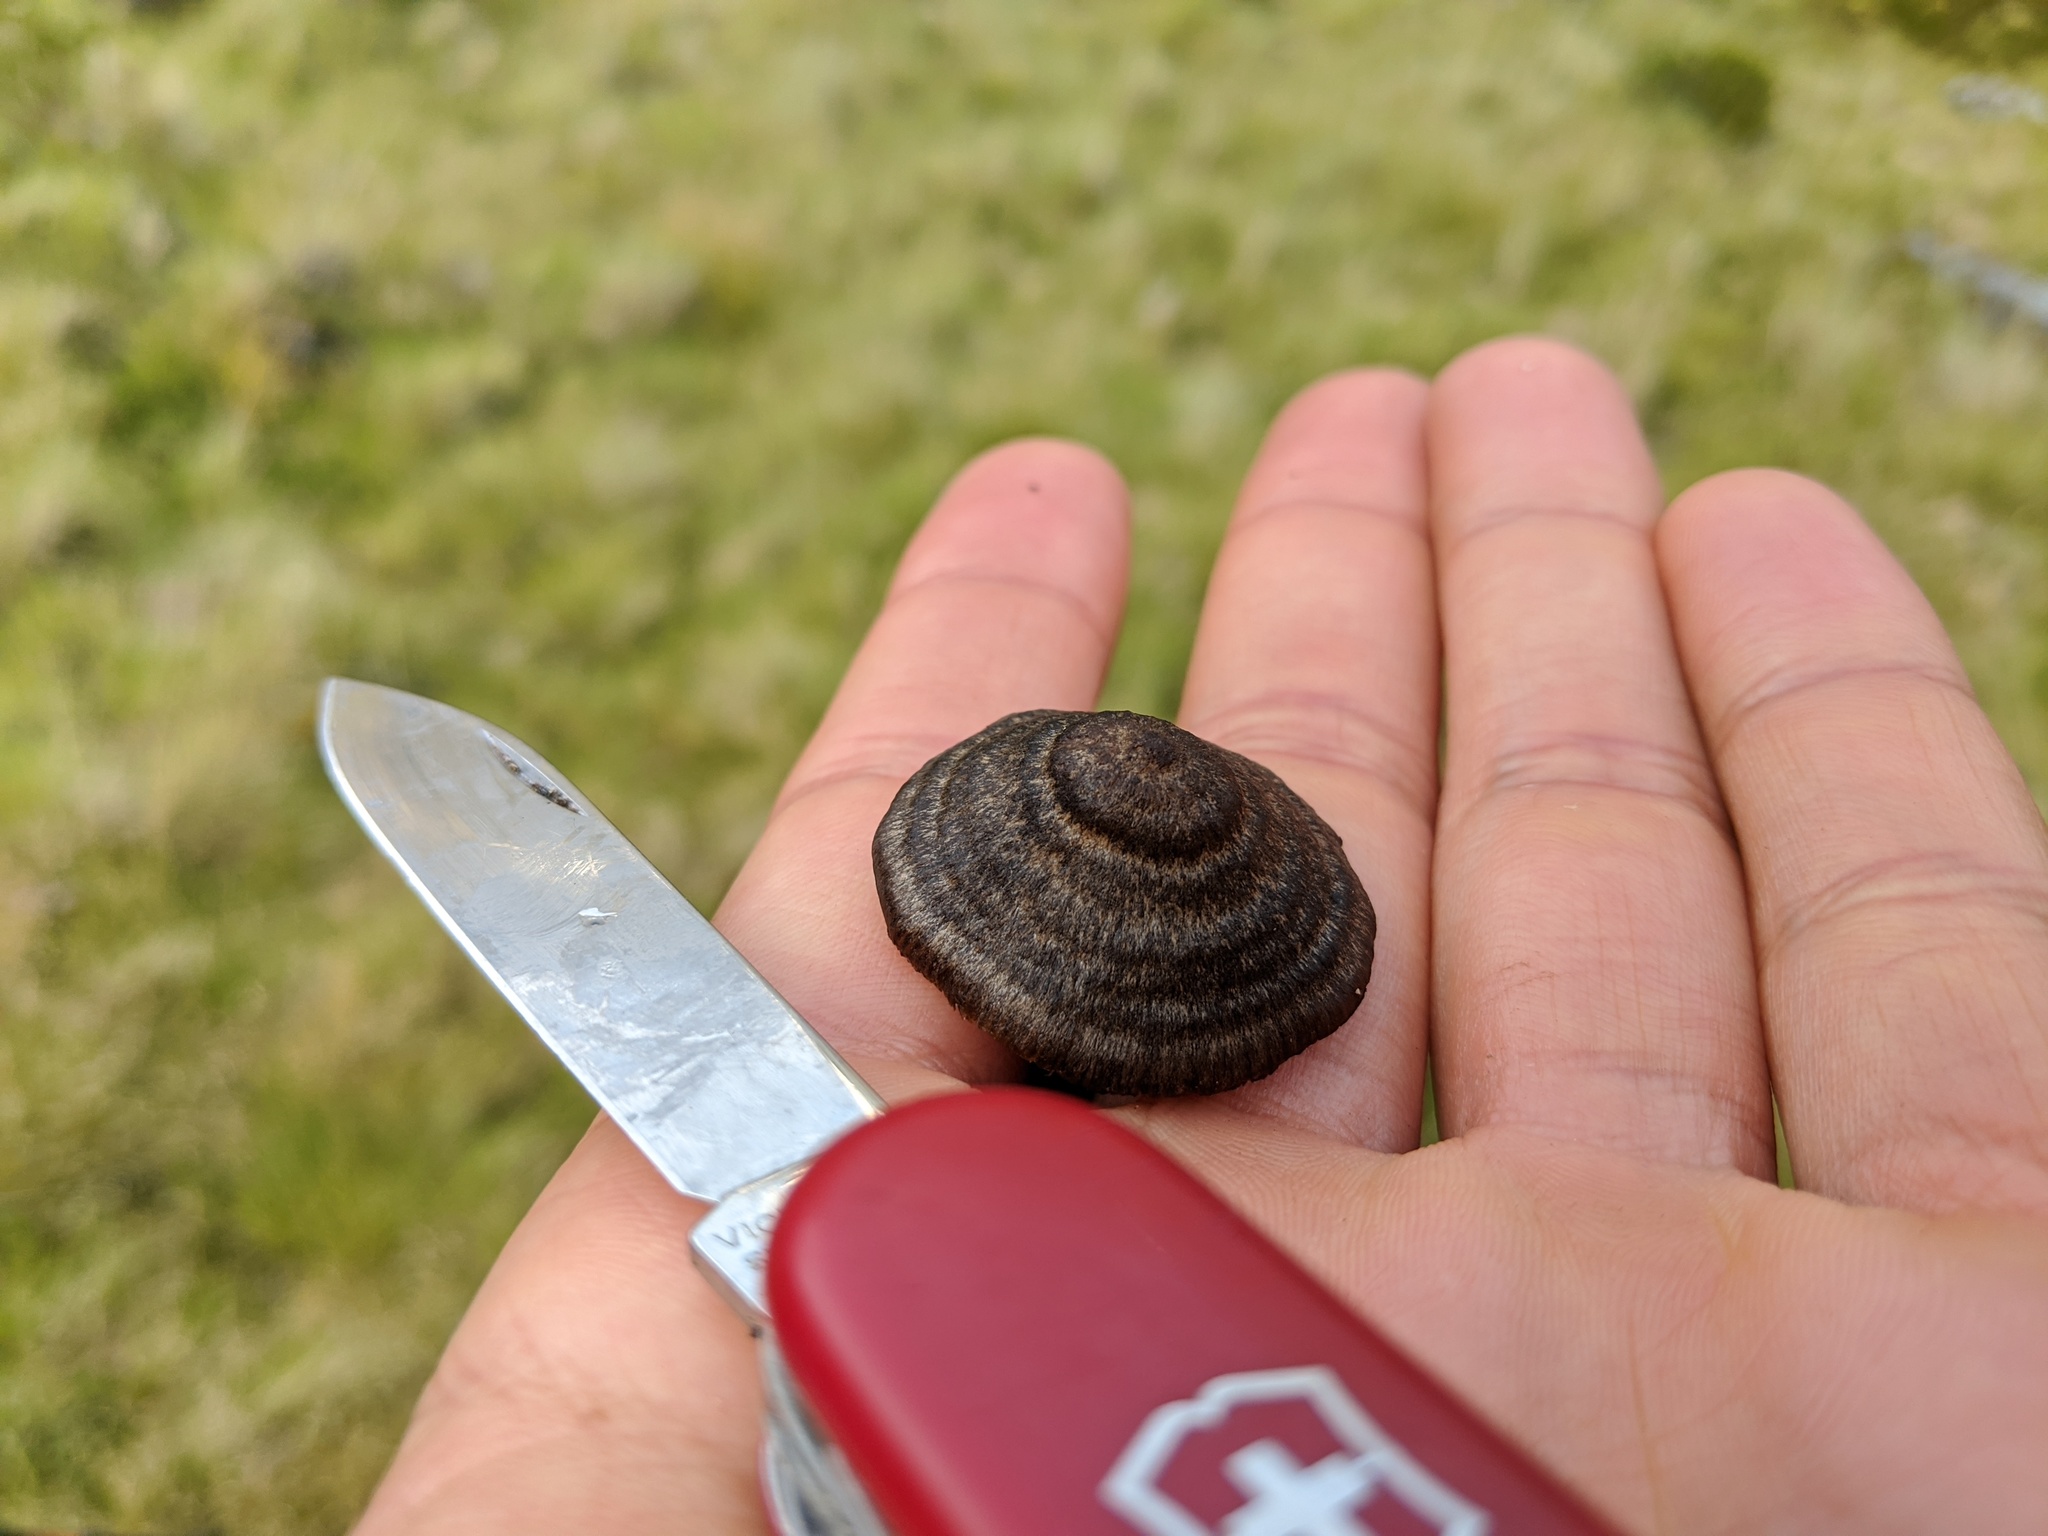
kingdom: Fungi
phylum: Basidiomycota
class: Agaricomycetes
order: Agaricales
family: Entolomataceae
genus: Entoloma
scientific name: Entoloma perzonatum
